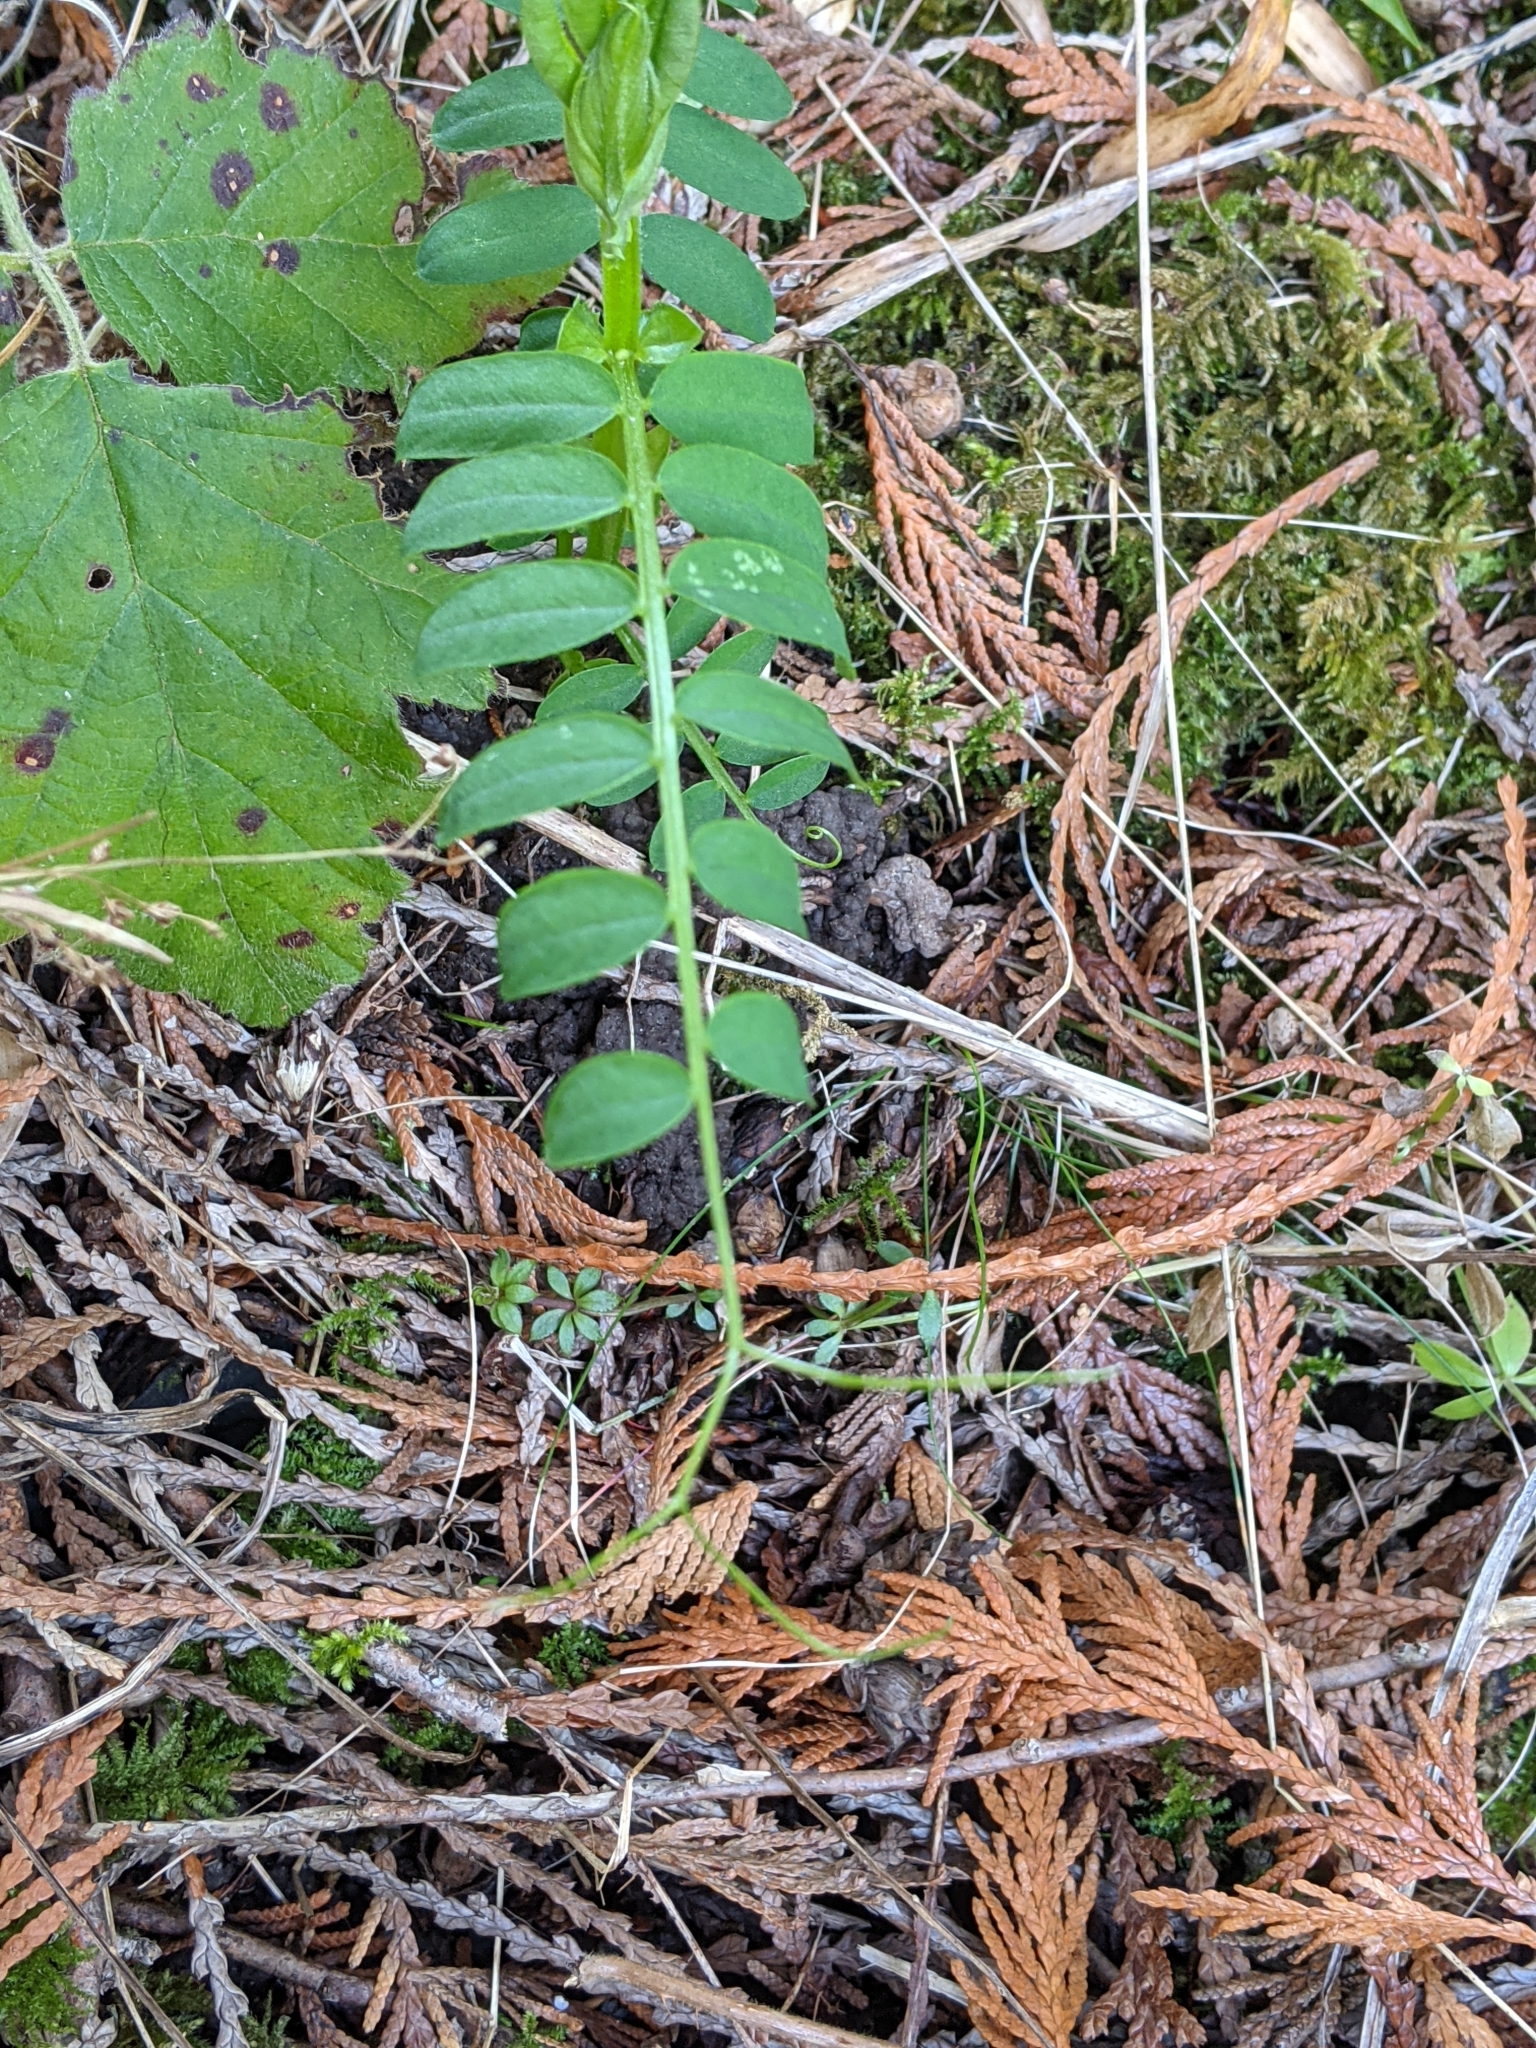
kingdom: Plantae
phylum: Tracheophyta
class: Magnoliopsida
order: Fabales
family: Fabaceae
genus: Vicia
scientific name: Vicia
